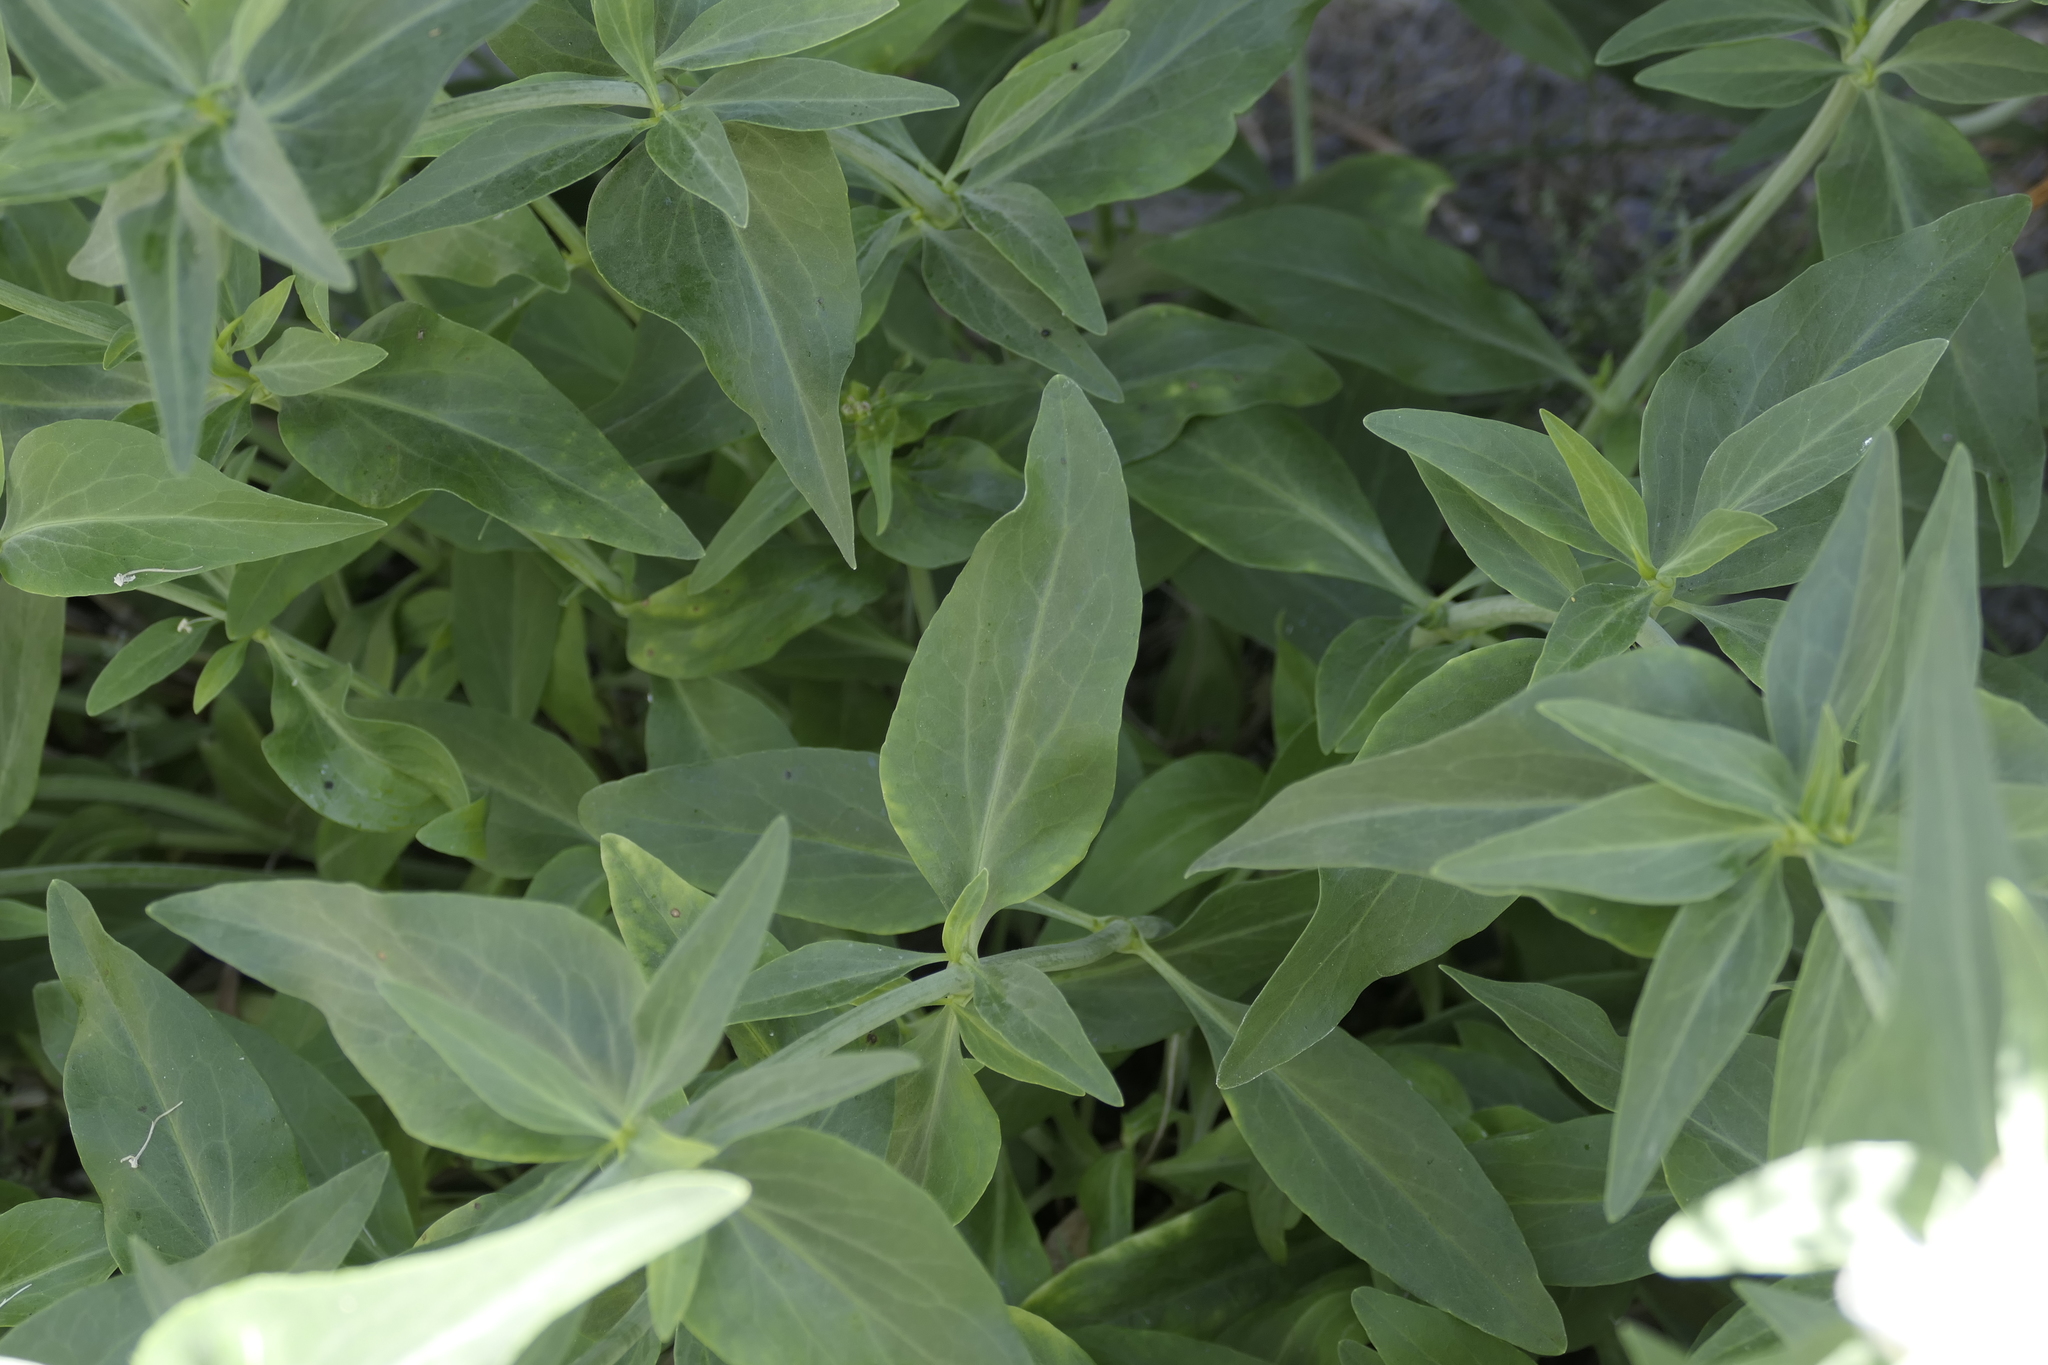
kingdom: Plantae
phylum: Tracheophyta
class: Magnoliopsida
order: Dipsacales
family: Caprifoliaceae
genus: Centranthus
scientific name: Centranthus ruber
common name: Red valerian
